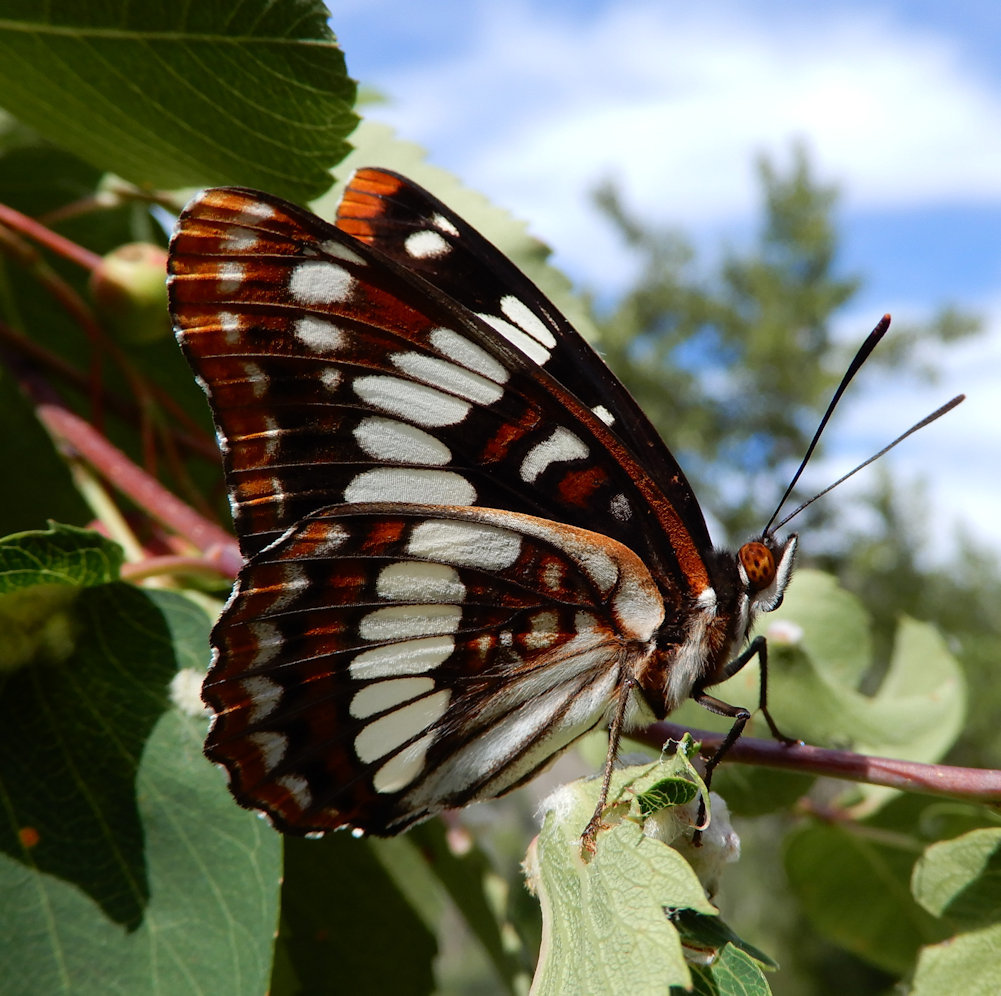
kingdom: Animalia
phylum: Arthropoda
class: Insecta
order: Lepidoptera
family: Nymphalidae
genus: Limenitis
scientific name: Limenitis lorquini
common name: Lorquin's admiral
